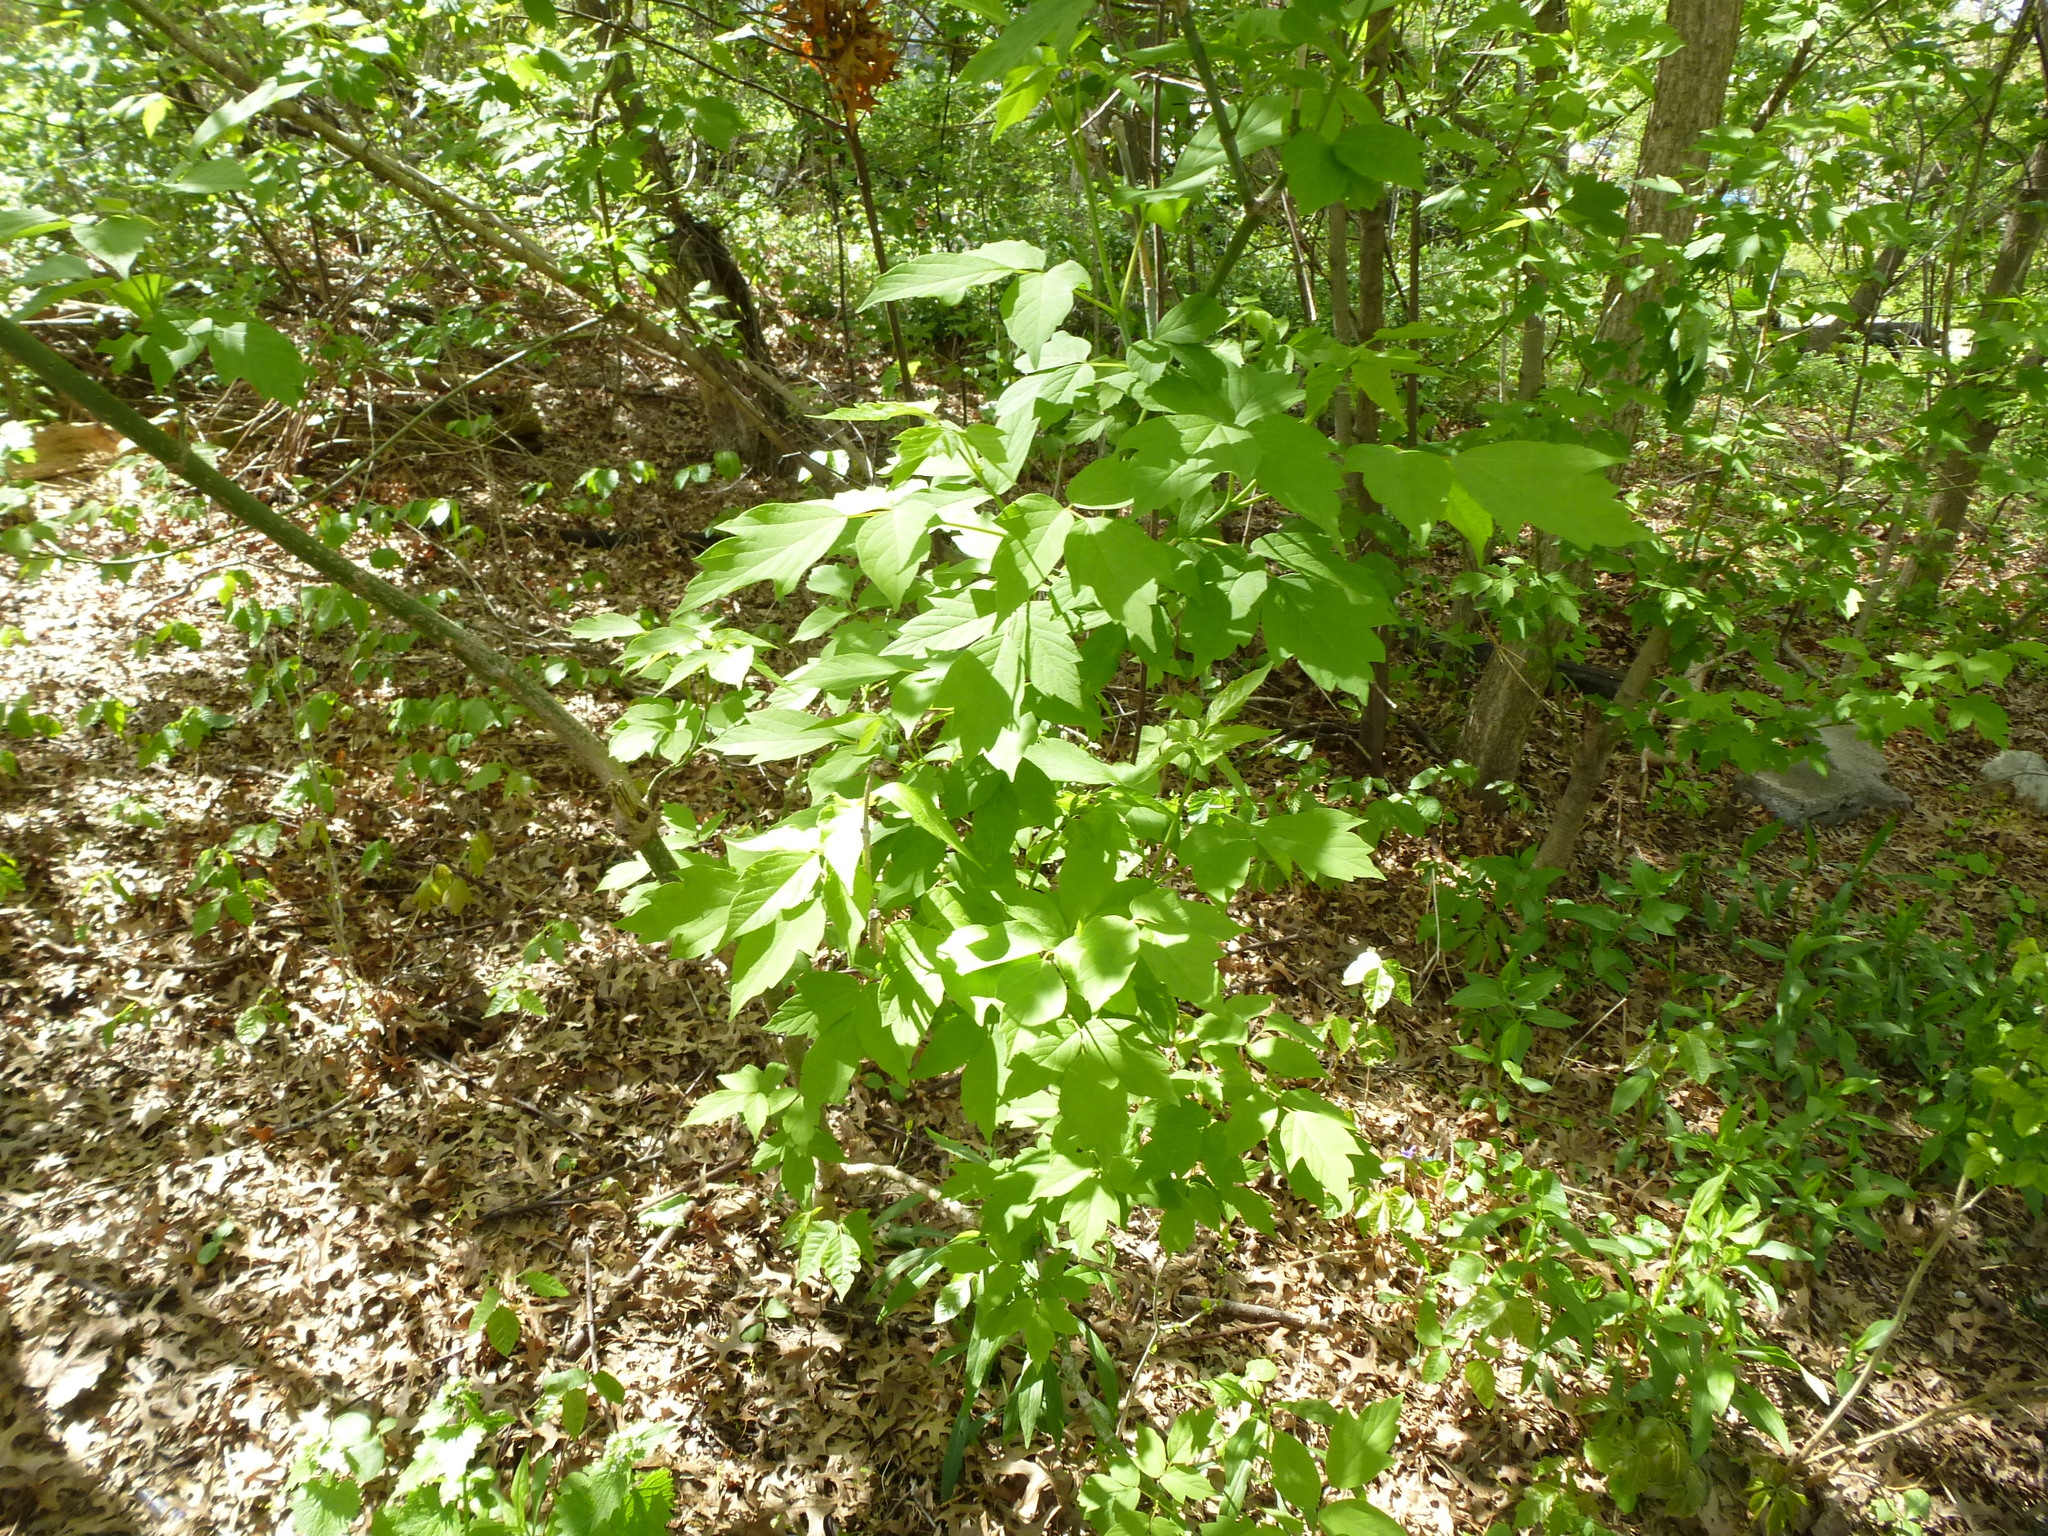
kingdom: Plantae
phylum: Tracheophyta
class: Magnoliopsida
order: Sapindales
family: Sapindaceae
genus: Acer
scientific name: Acer negundo
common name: Ashleaf maple
